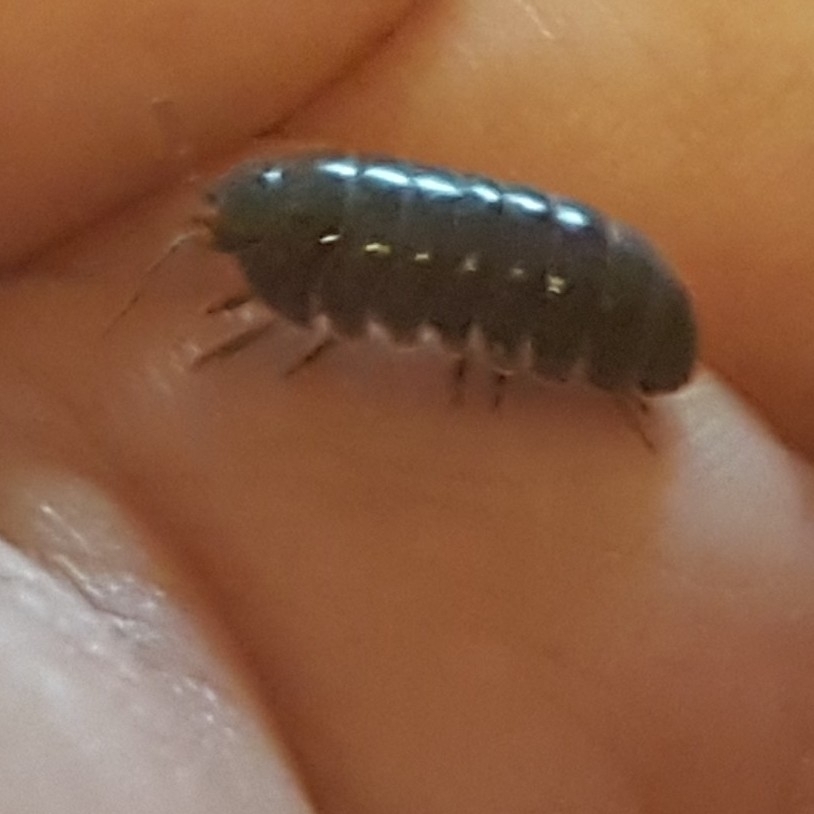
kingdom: Animalia
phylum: Arthropoda
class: Malacostraca
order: Isopoda
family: Armadillidiidae
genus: Armadillidium
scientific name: Armadillidium vulgare
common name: Common pill woodlouse
